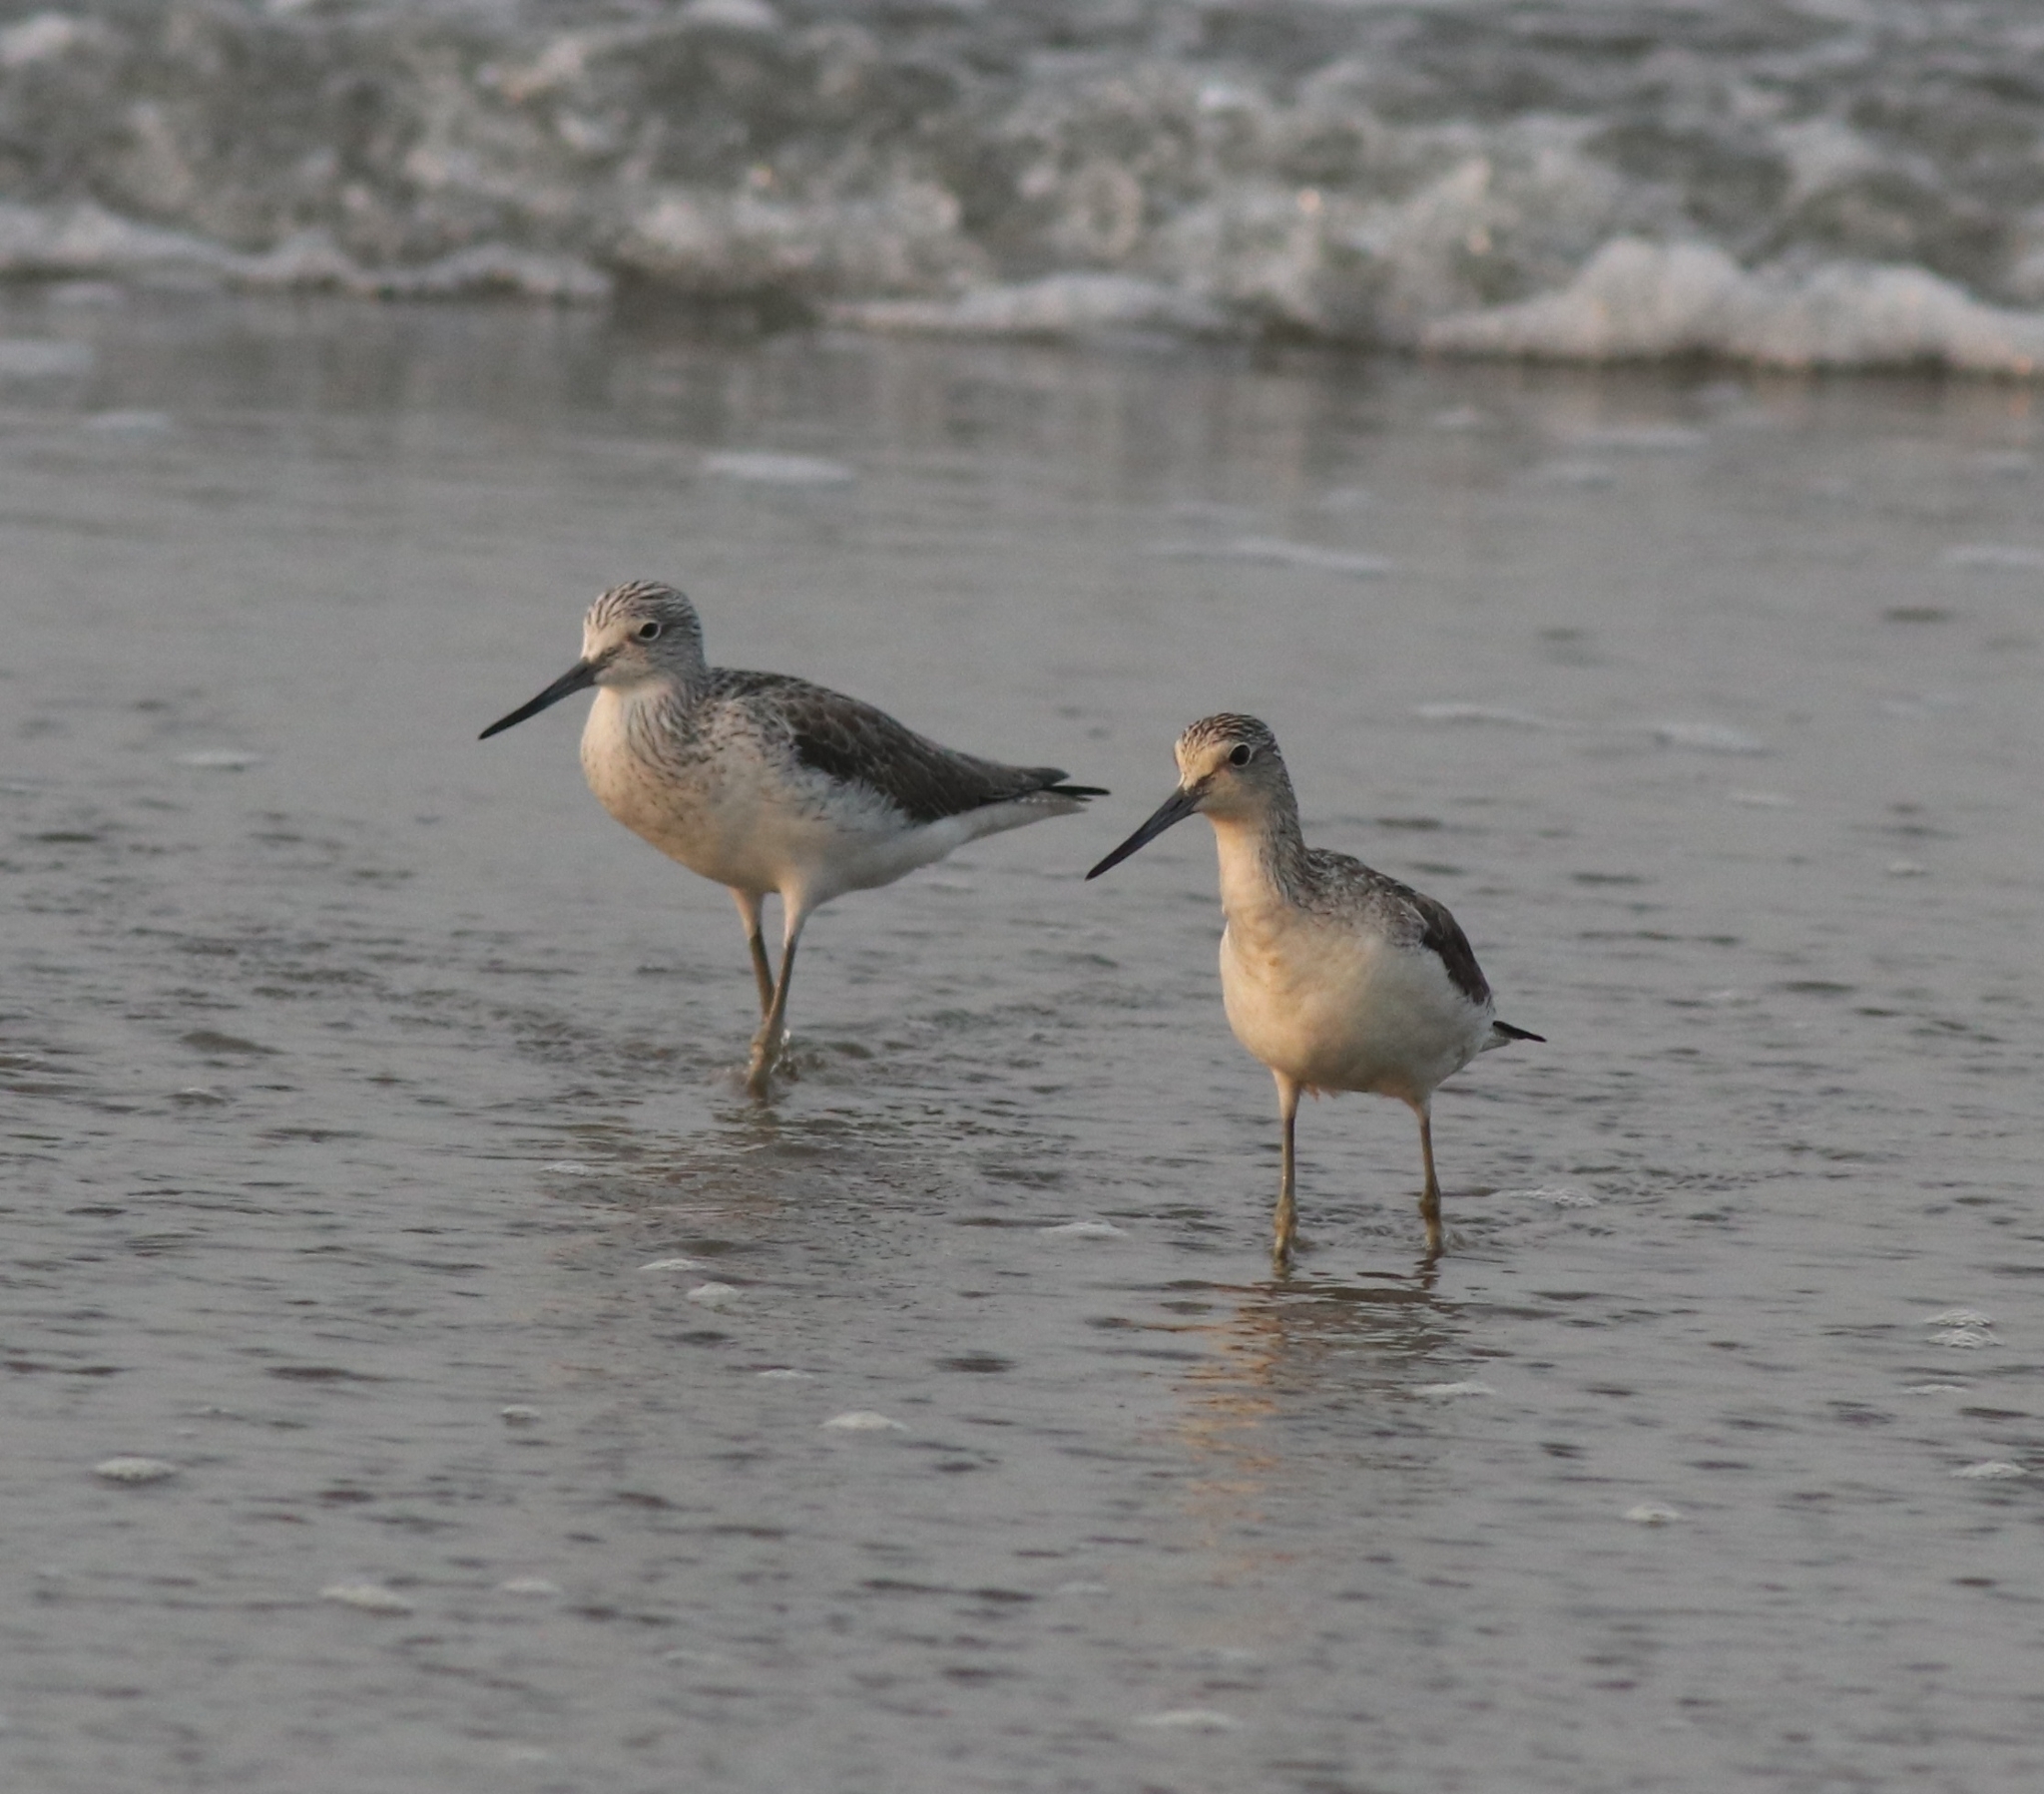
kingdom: Animalia
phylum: Chordata
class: Aves
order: Charadriiformes
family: Scolopacidae
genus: Tringa
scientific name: Tringa nebularia
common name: Common greenshank
